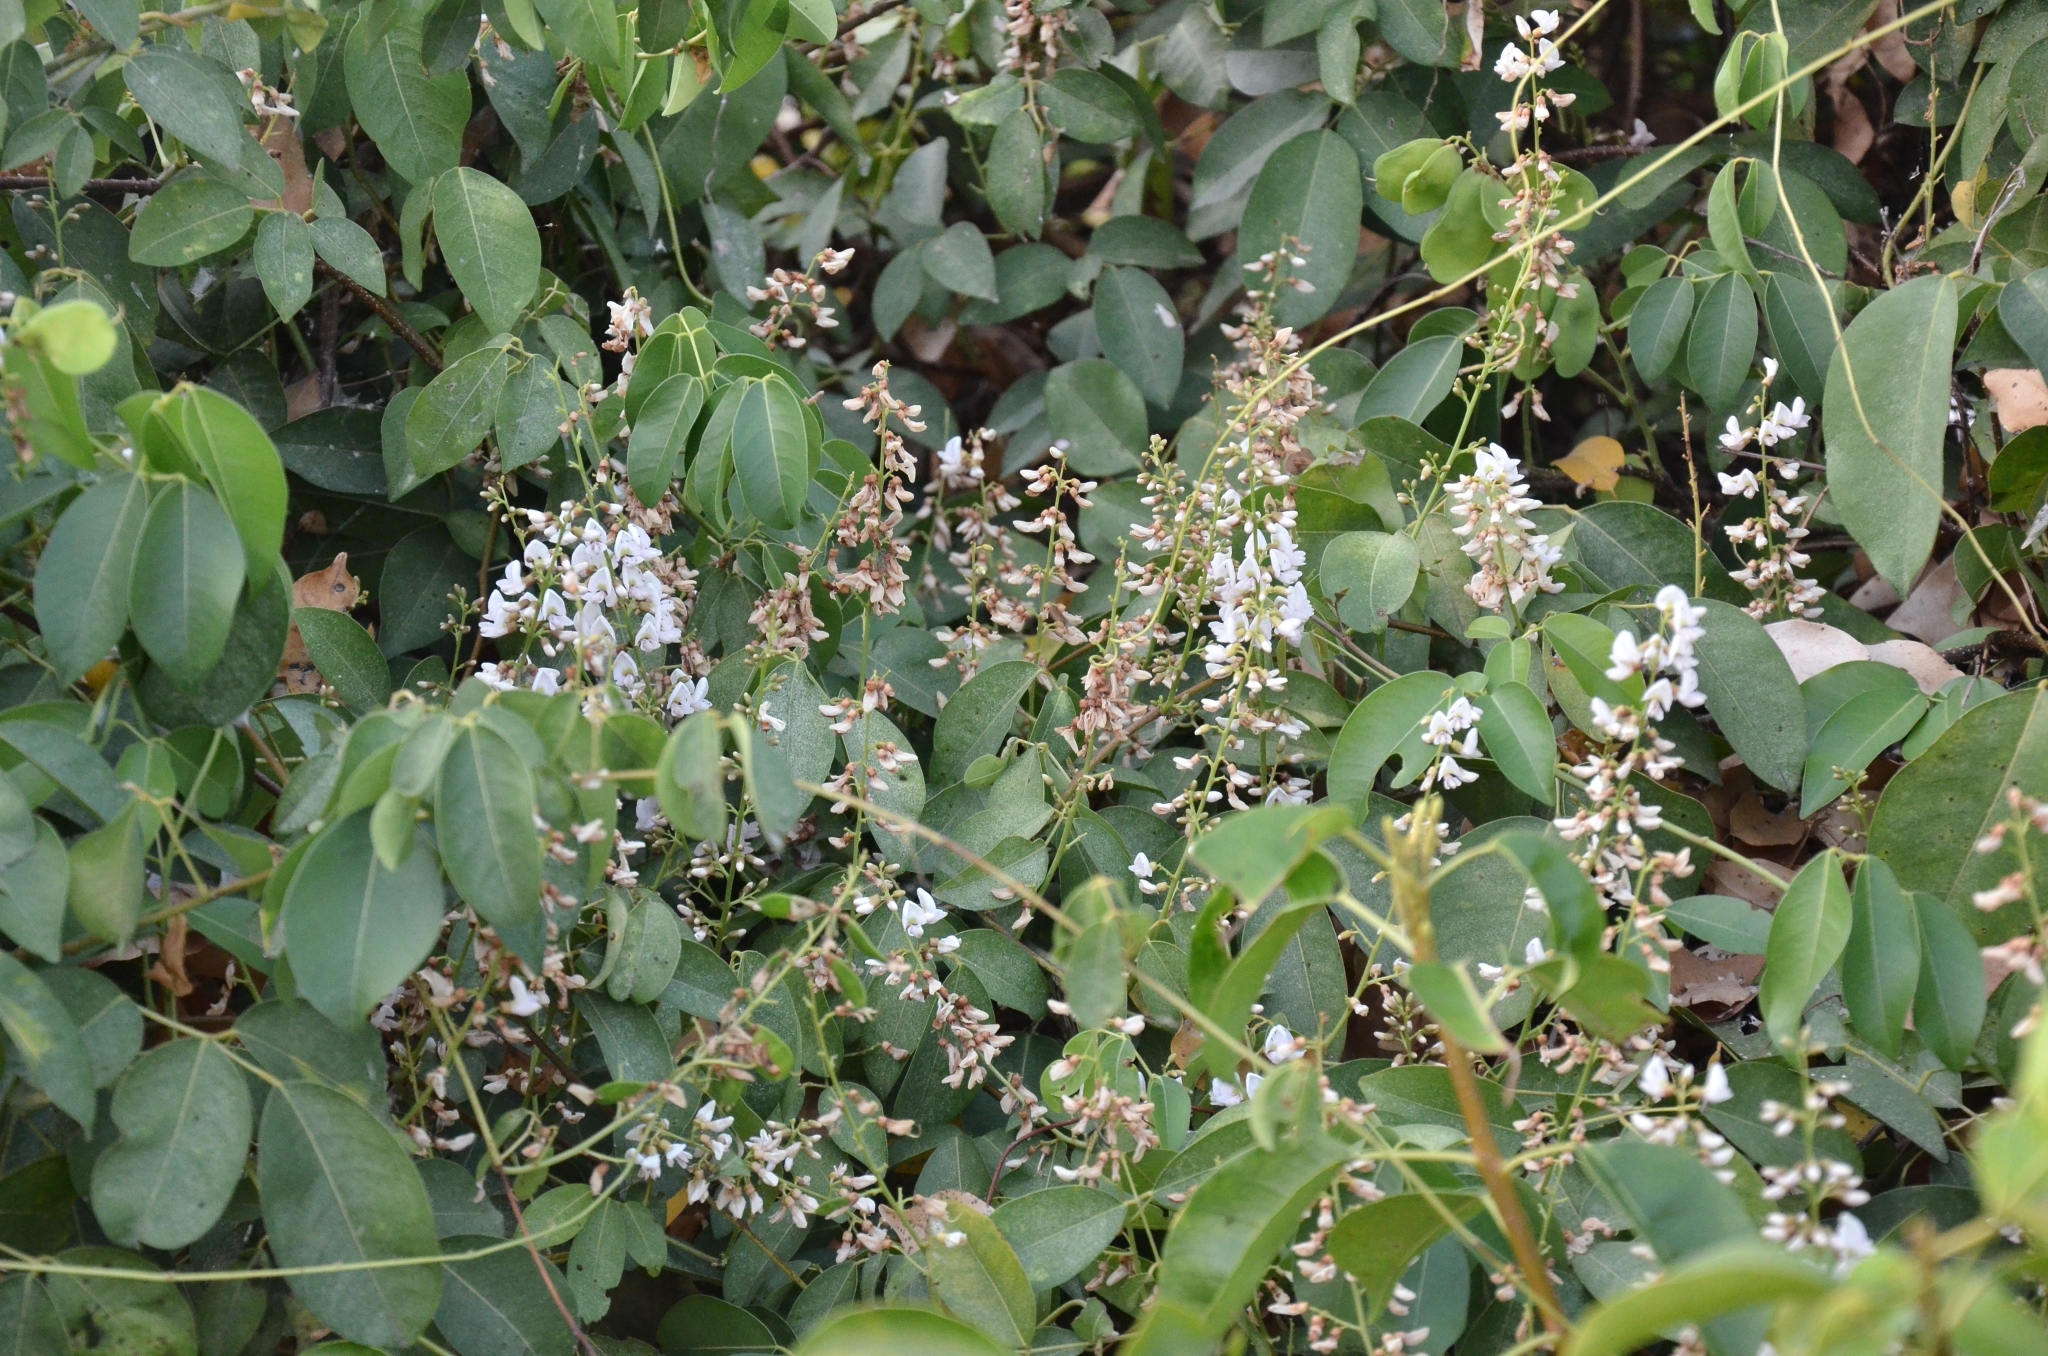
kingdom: Plantae
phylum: Tracheophyta
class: Magnoliopsida
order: Fabales
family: Fabaceae
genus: Derris
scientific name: Derris trifoliata
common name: Three-leaf derris
